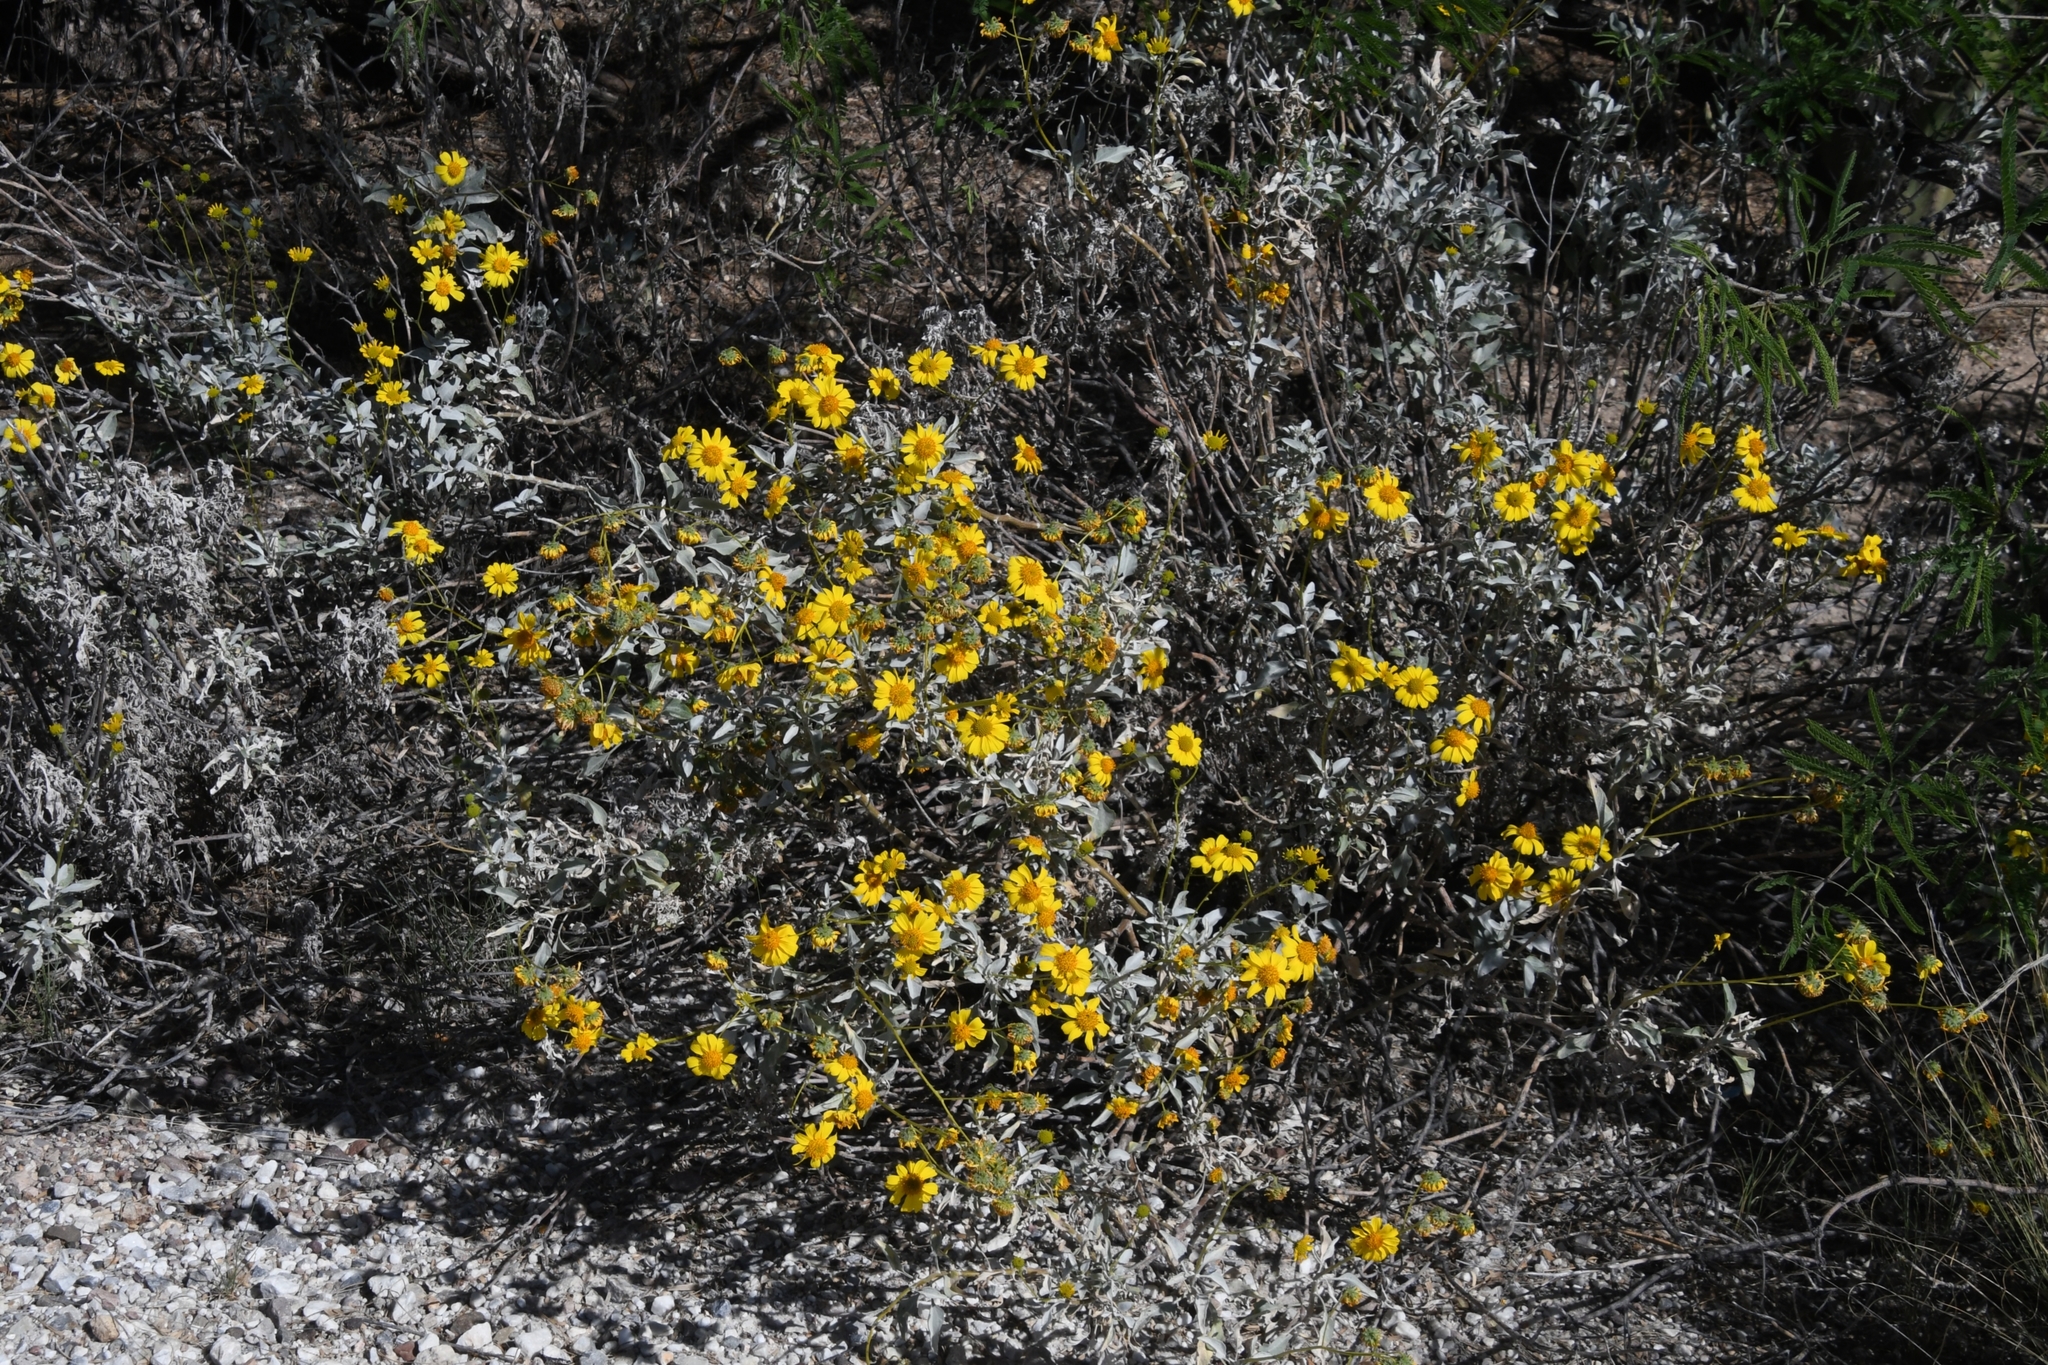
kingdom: Plantae
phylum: Tracheophyta
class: Magnoliopsida
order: Asterales
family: Asteraceae
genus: Encelia
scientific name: Encelia farinosa
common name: Brittlebush
